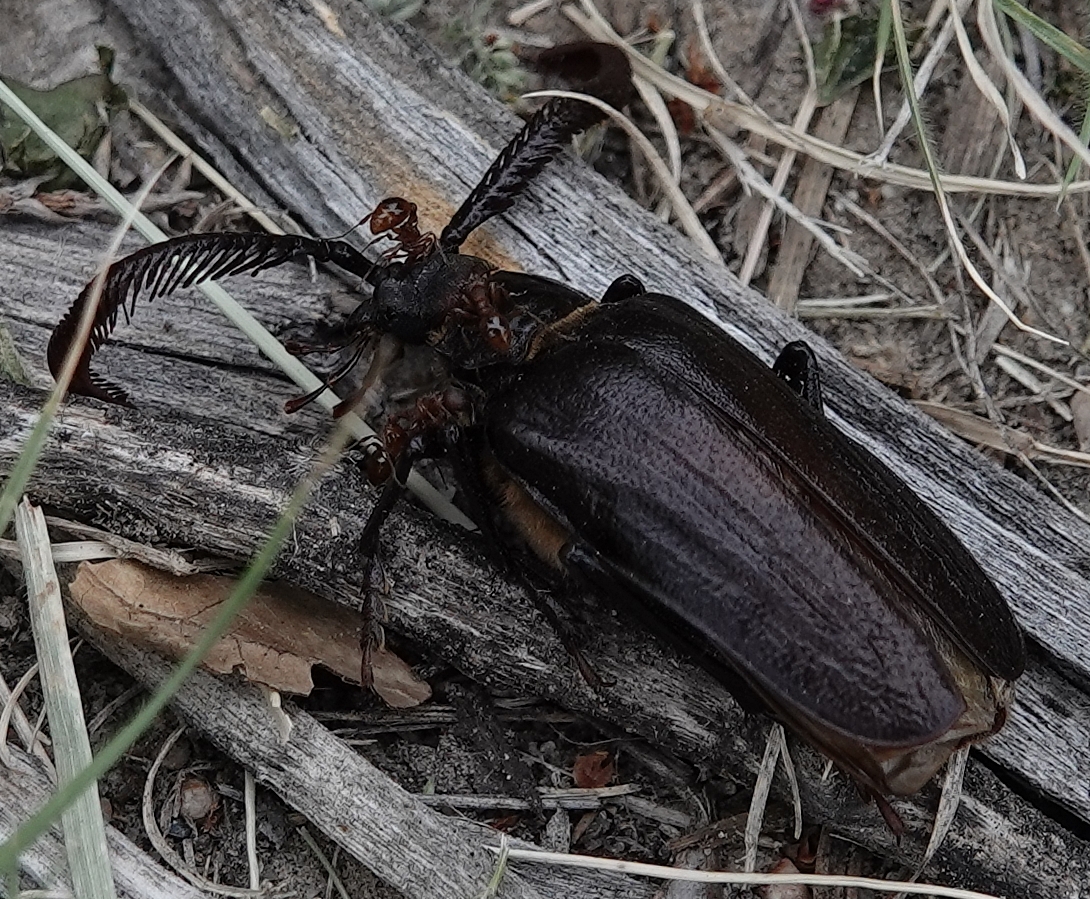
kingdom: Animalia
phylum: Arthropoda
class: Insecta
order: Coleoptera
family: Cerambycidae
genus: Prionus
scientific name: Prionus fissicornis
